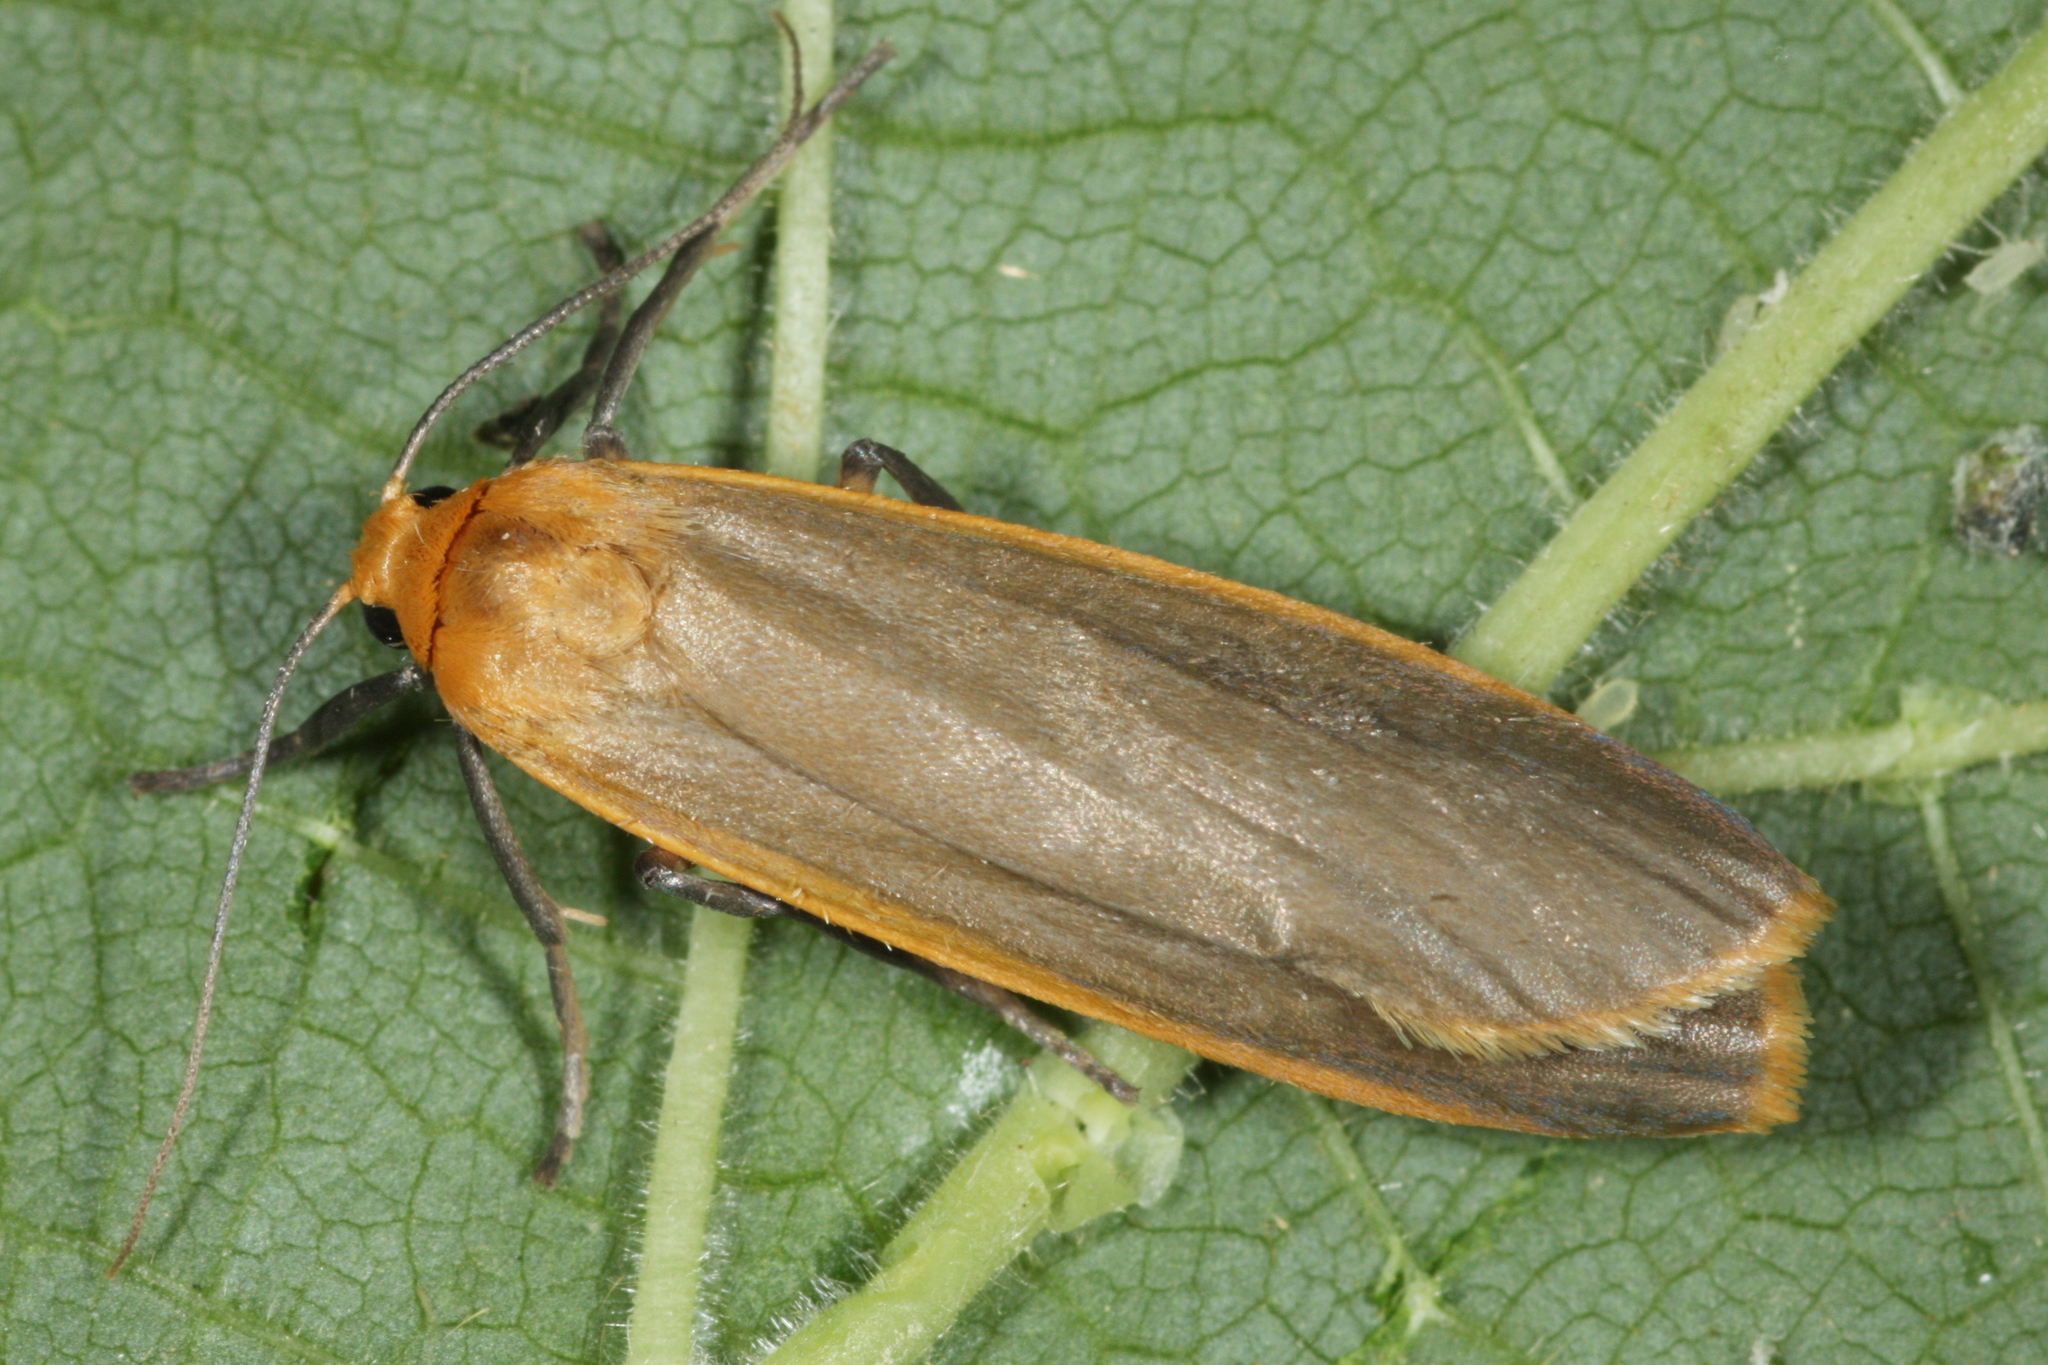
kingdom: Animalia
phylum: Arthropoda
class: Insecta
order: Lepidoptera
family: Erebidae
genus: Katha
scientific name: Katha depressa
